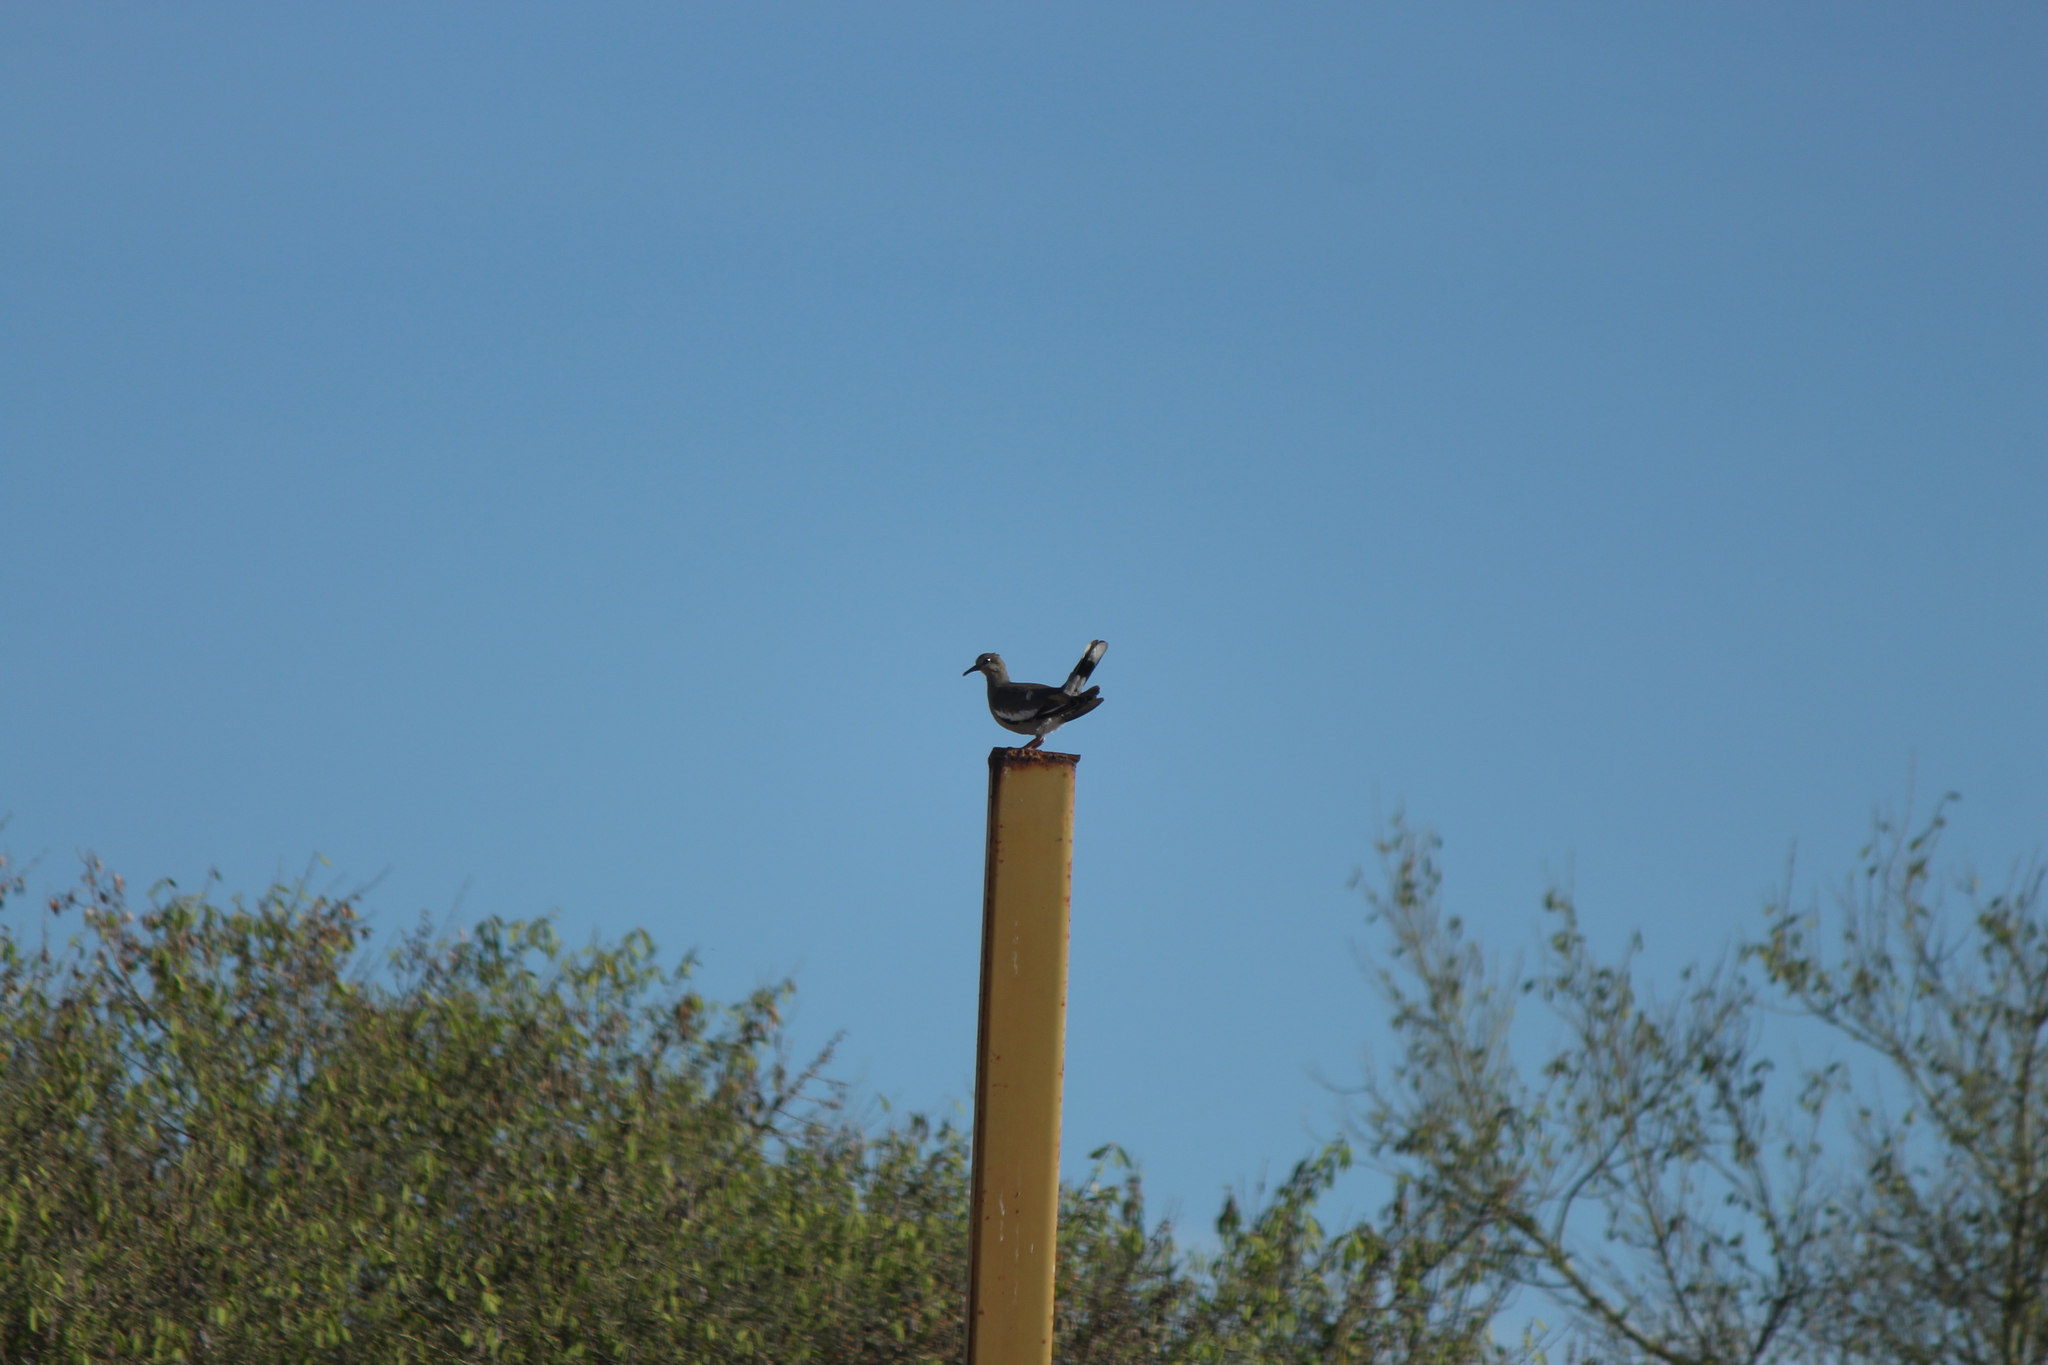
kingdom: Animalia
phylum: Chordata
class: Aves
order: Columbiformes
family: Columbidae
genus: Zenaida
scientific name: Zenaida asiatica
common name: White-winged dove
